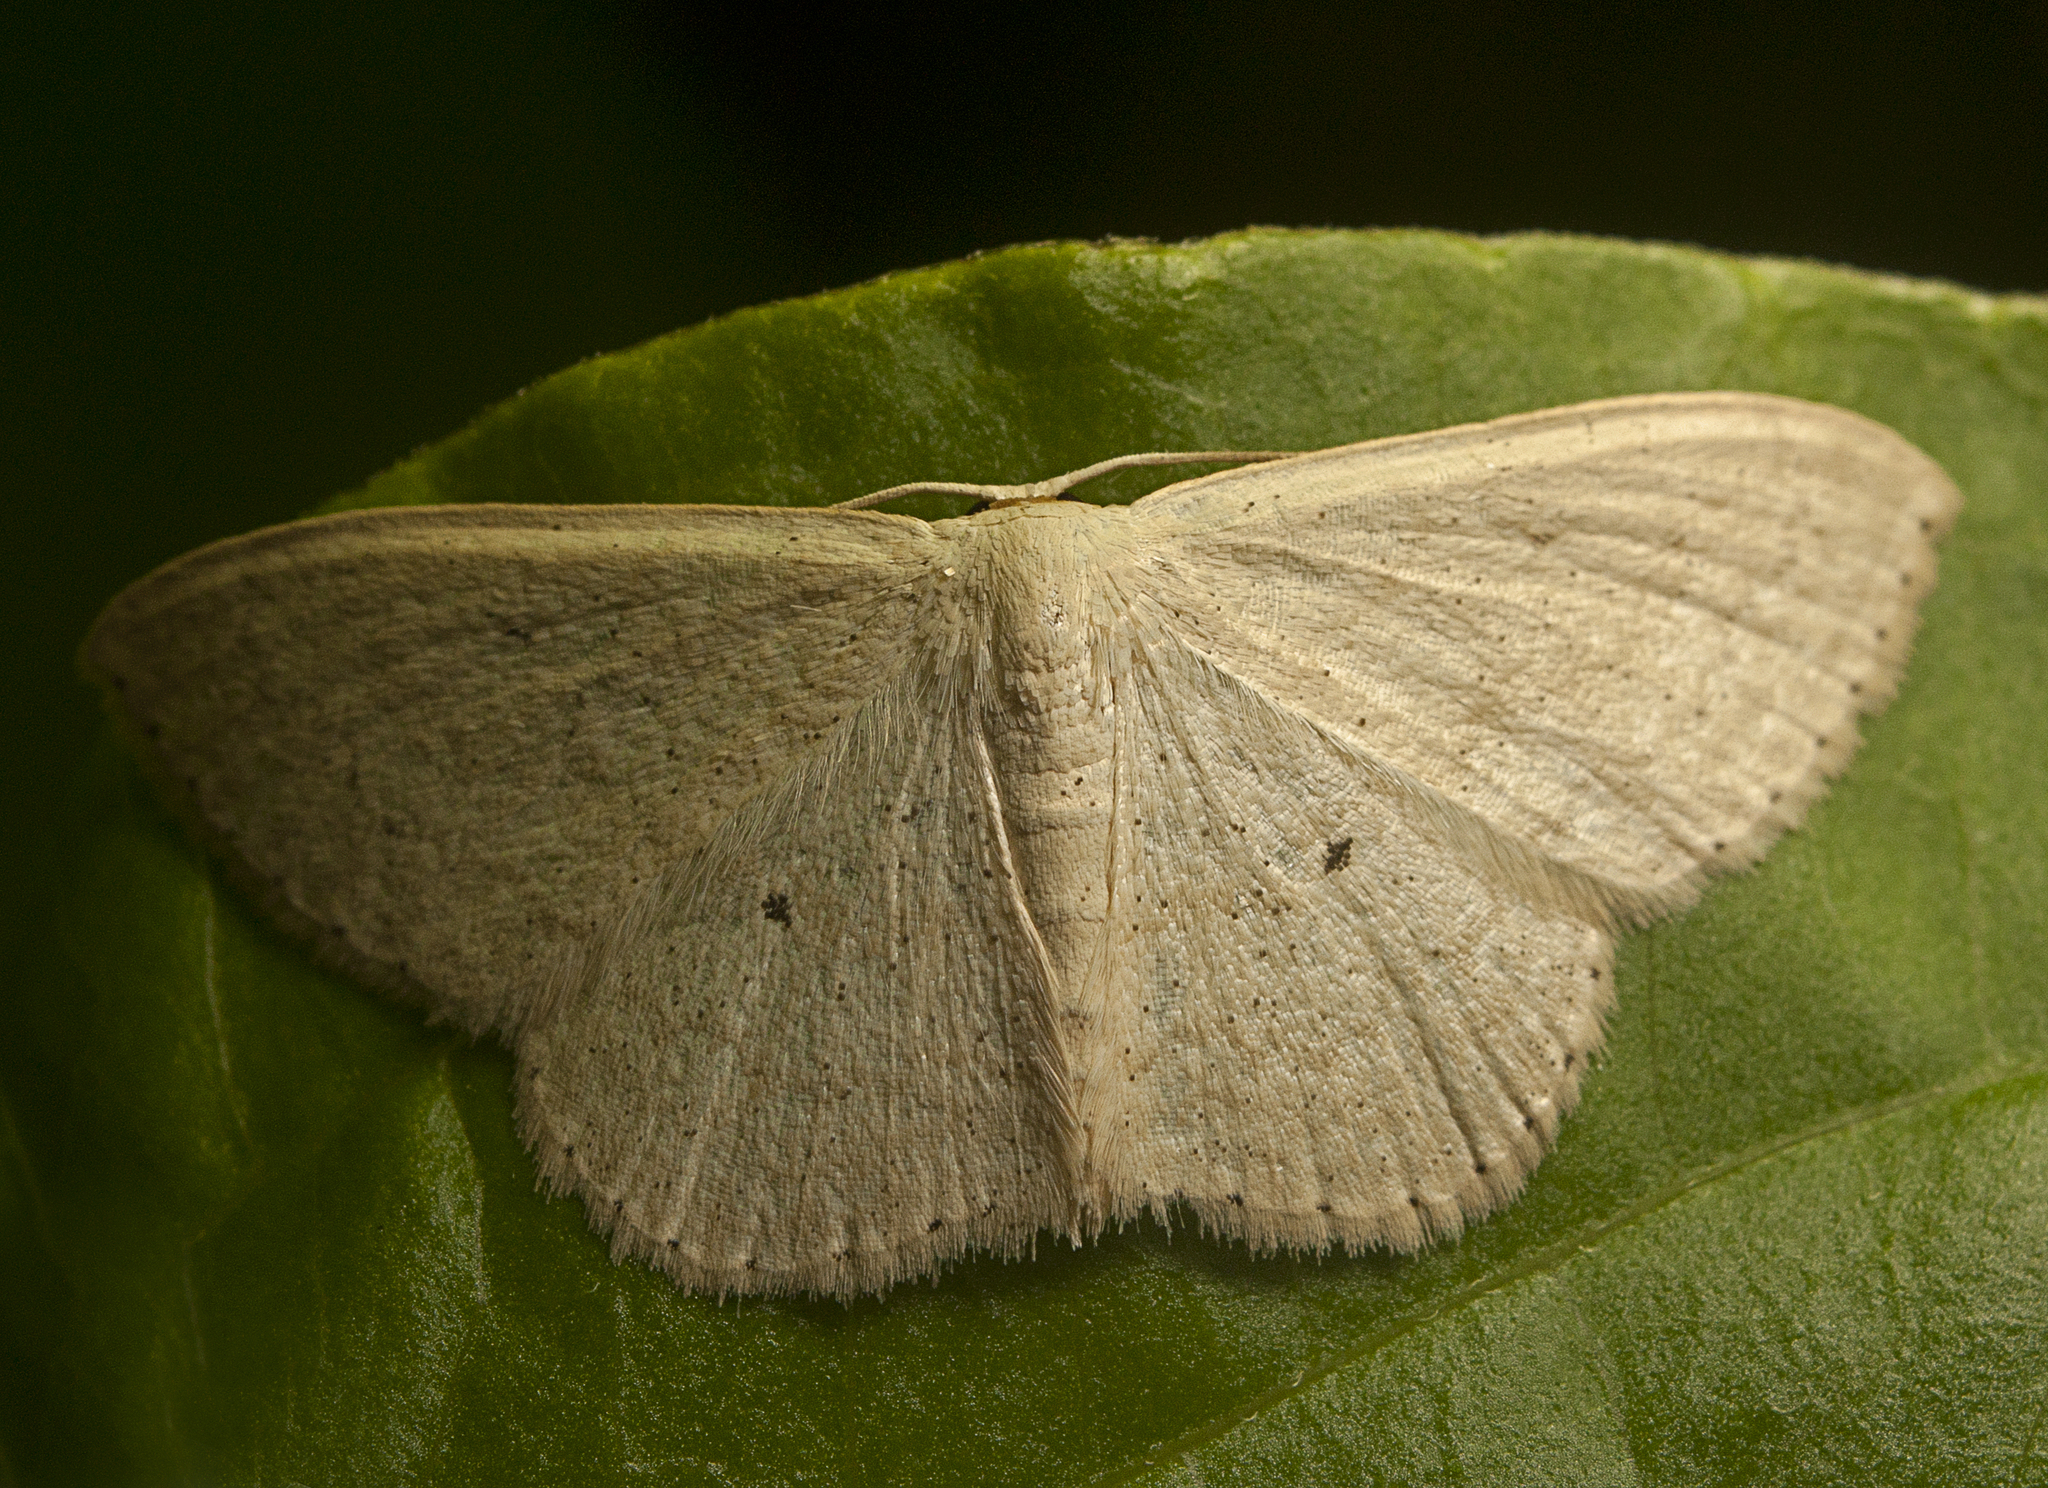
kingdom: Animalia
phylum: Arthropoda
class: Insecta
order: Lepidoptera
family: Geometridae
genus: Scopula
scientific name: Scopula optivata
